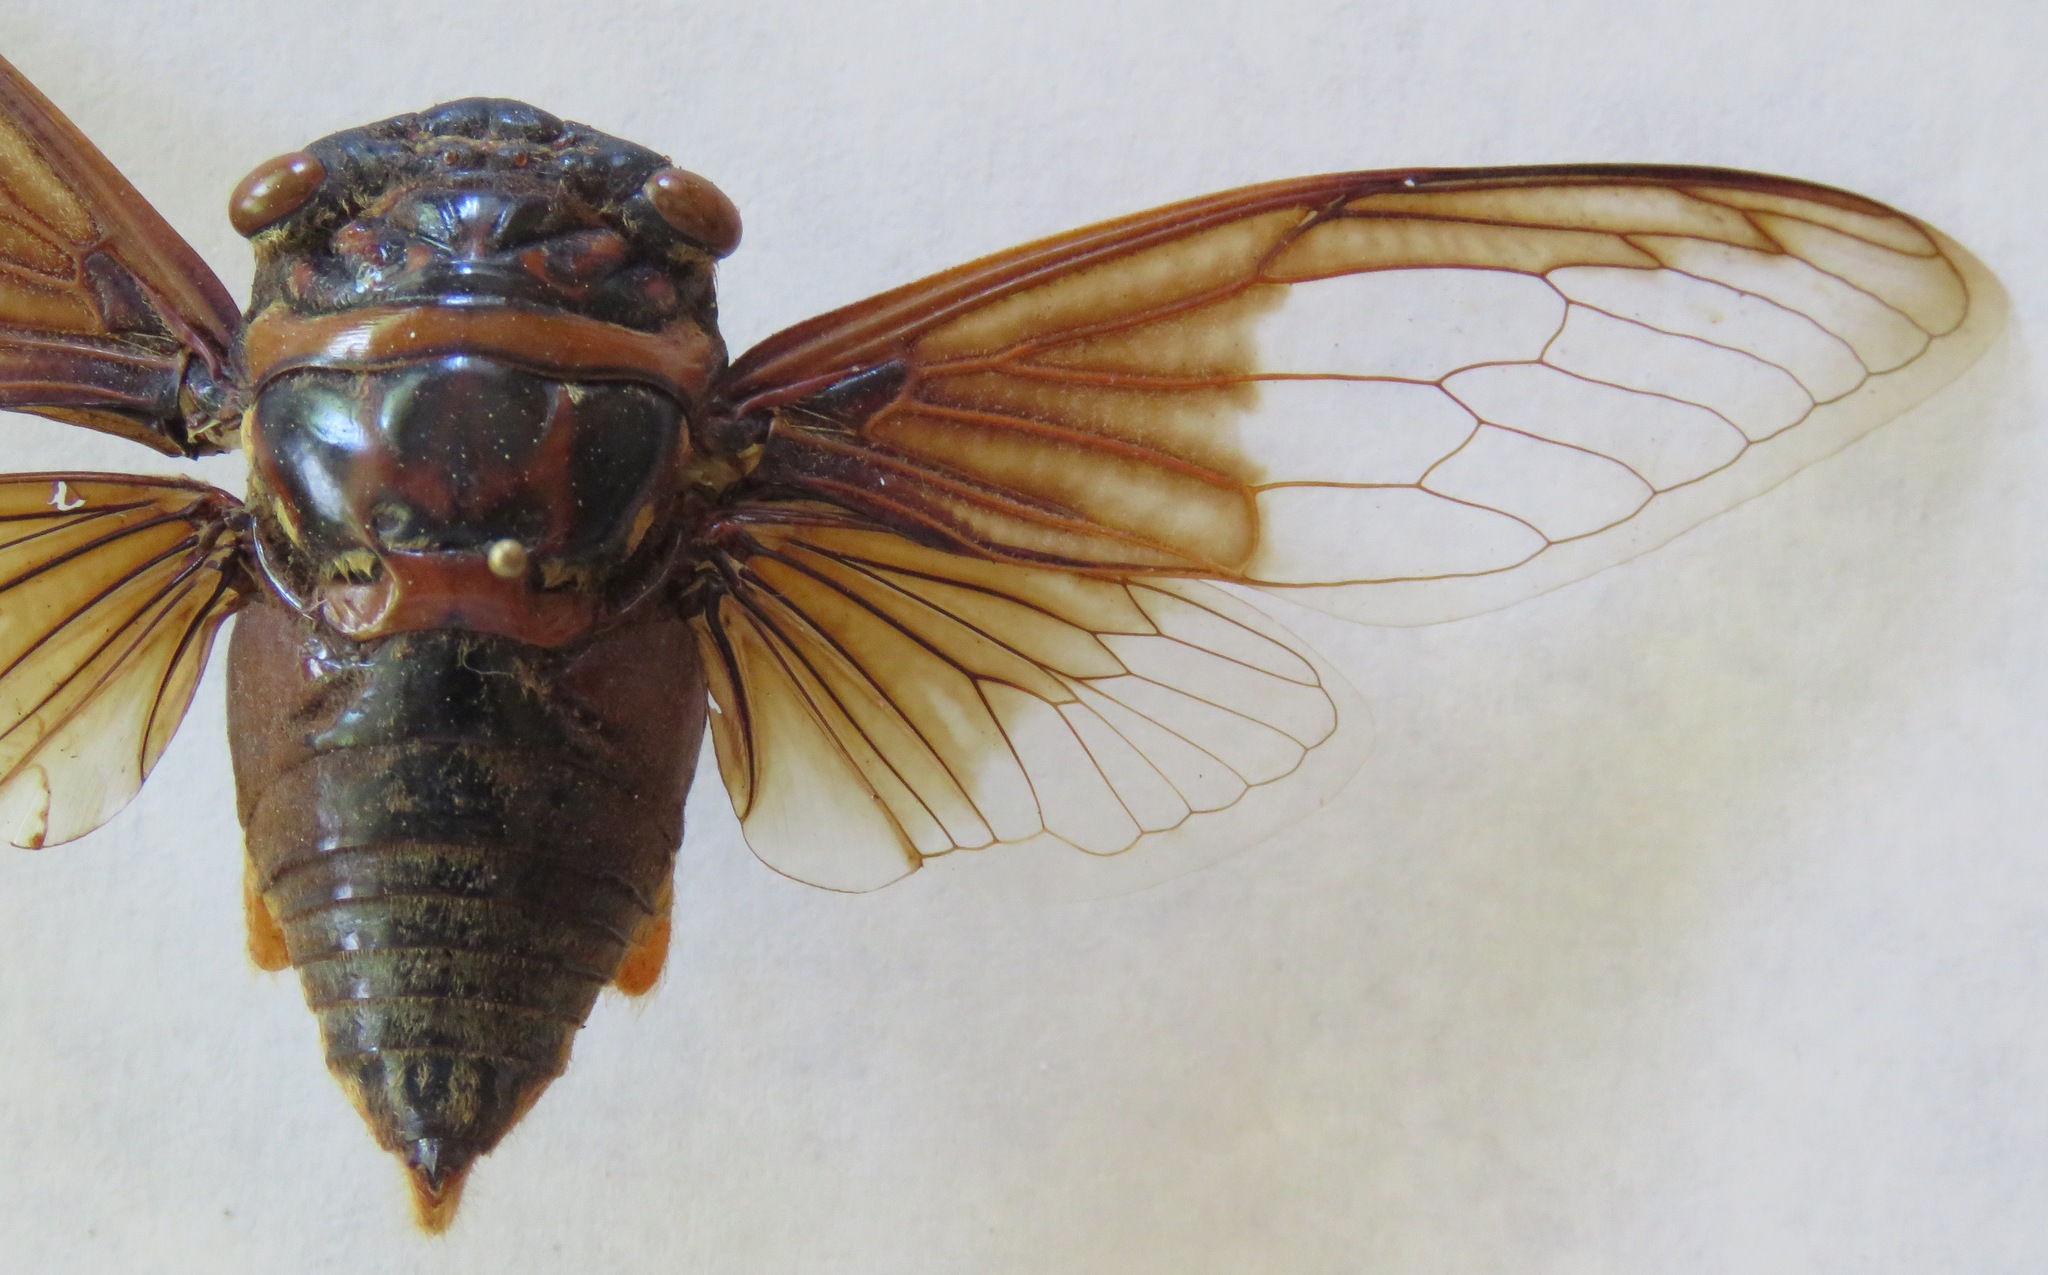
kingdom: Animalia
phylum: Arthropoda
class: Insecta
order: Hemiptera
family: Cicadidae
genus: Cryptotympana
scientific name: Cryptotympana aquila
